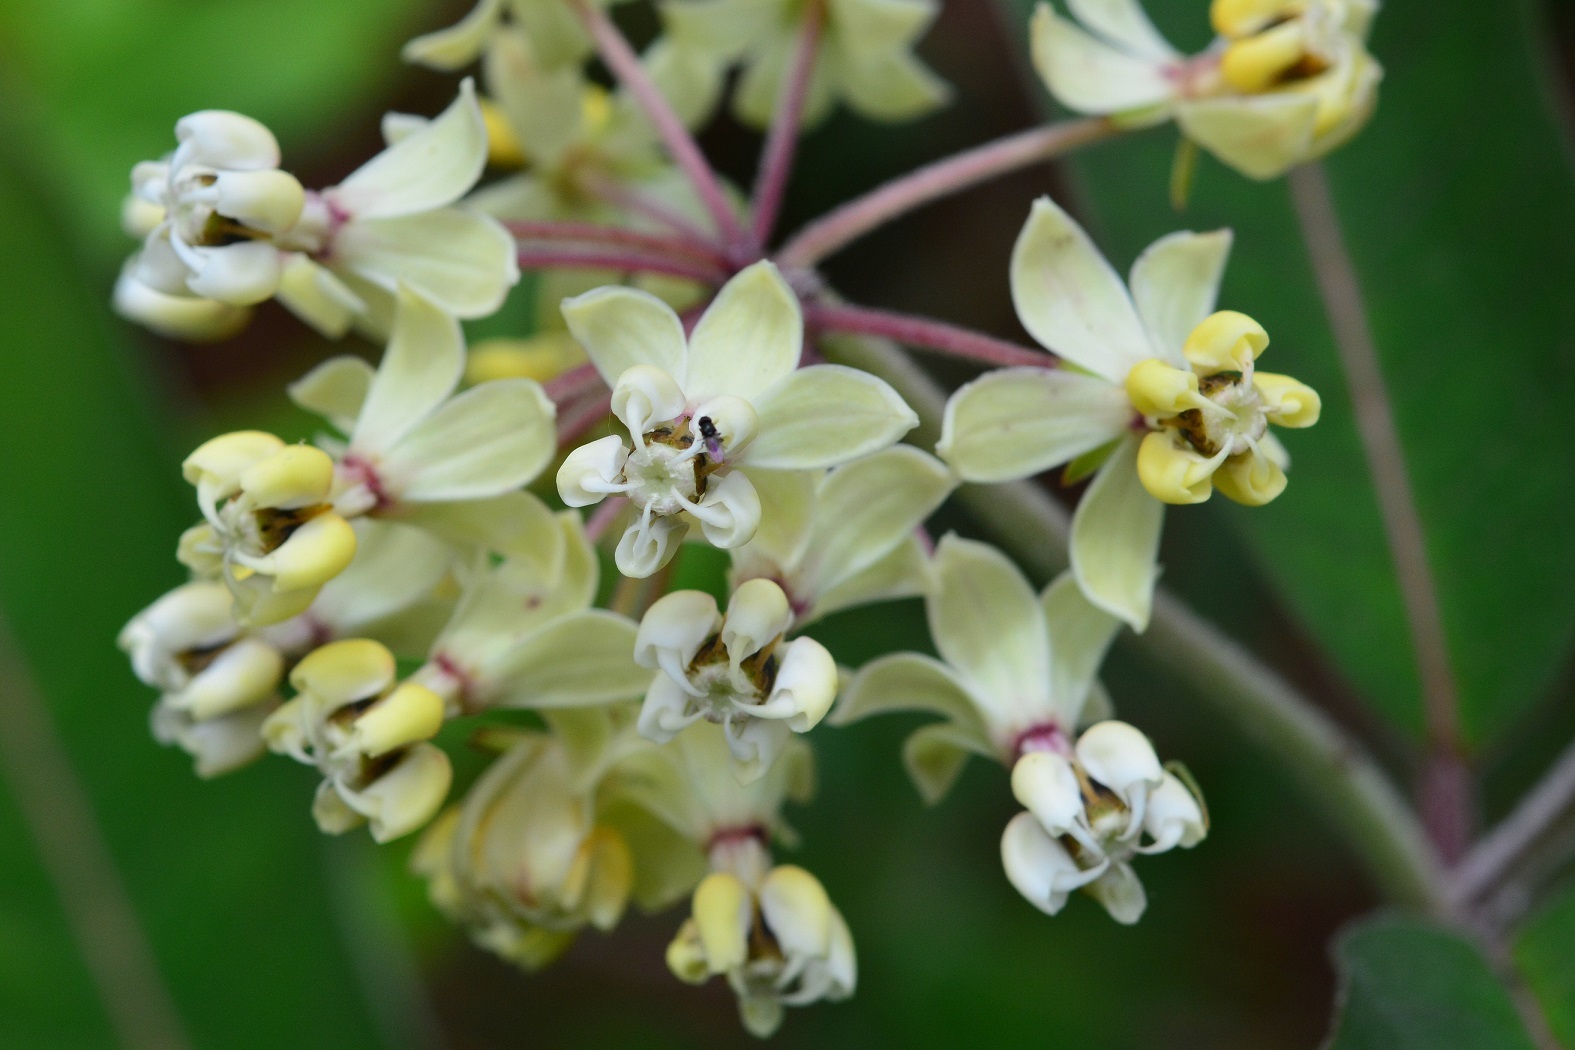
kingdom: Plantae
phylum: Tracheophyta
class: Magnoliopsida
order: Gentianales
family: Apocynaceae
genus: Asclepias
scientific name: Asclepias similis
